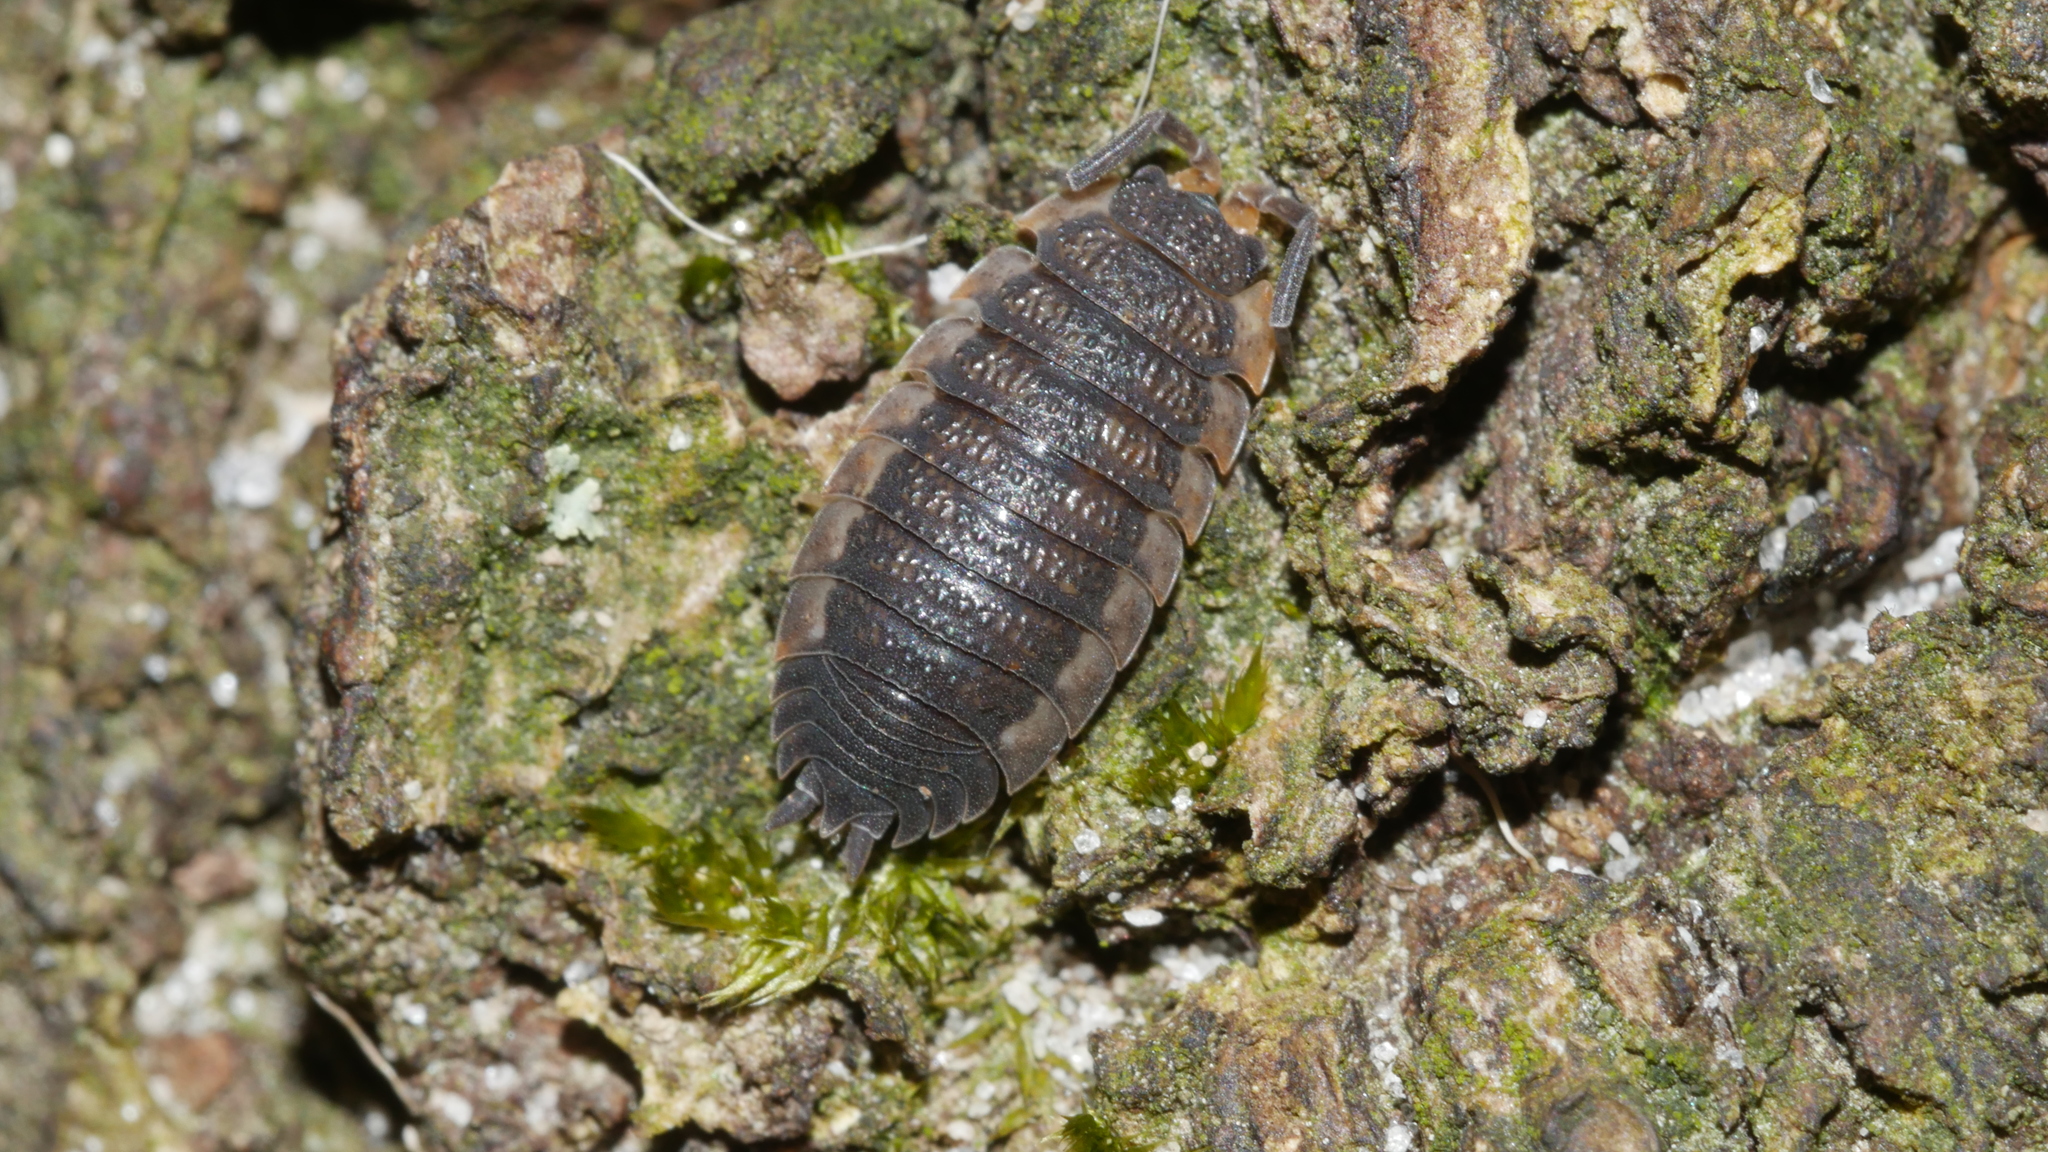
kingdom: Animalia
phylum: Arthropoda
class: Malacostraca
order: Isopoda
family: Porcellionidae
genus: Porcellio
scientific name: Porcellio scaber
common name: Common rough woodlouse
